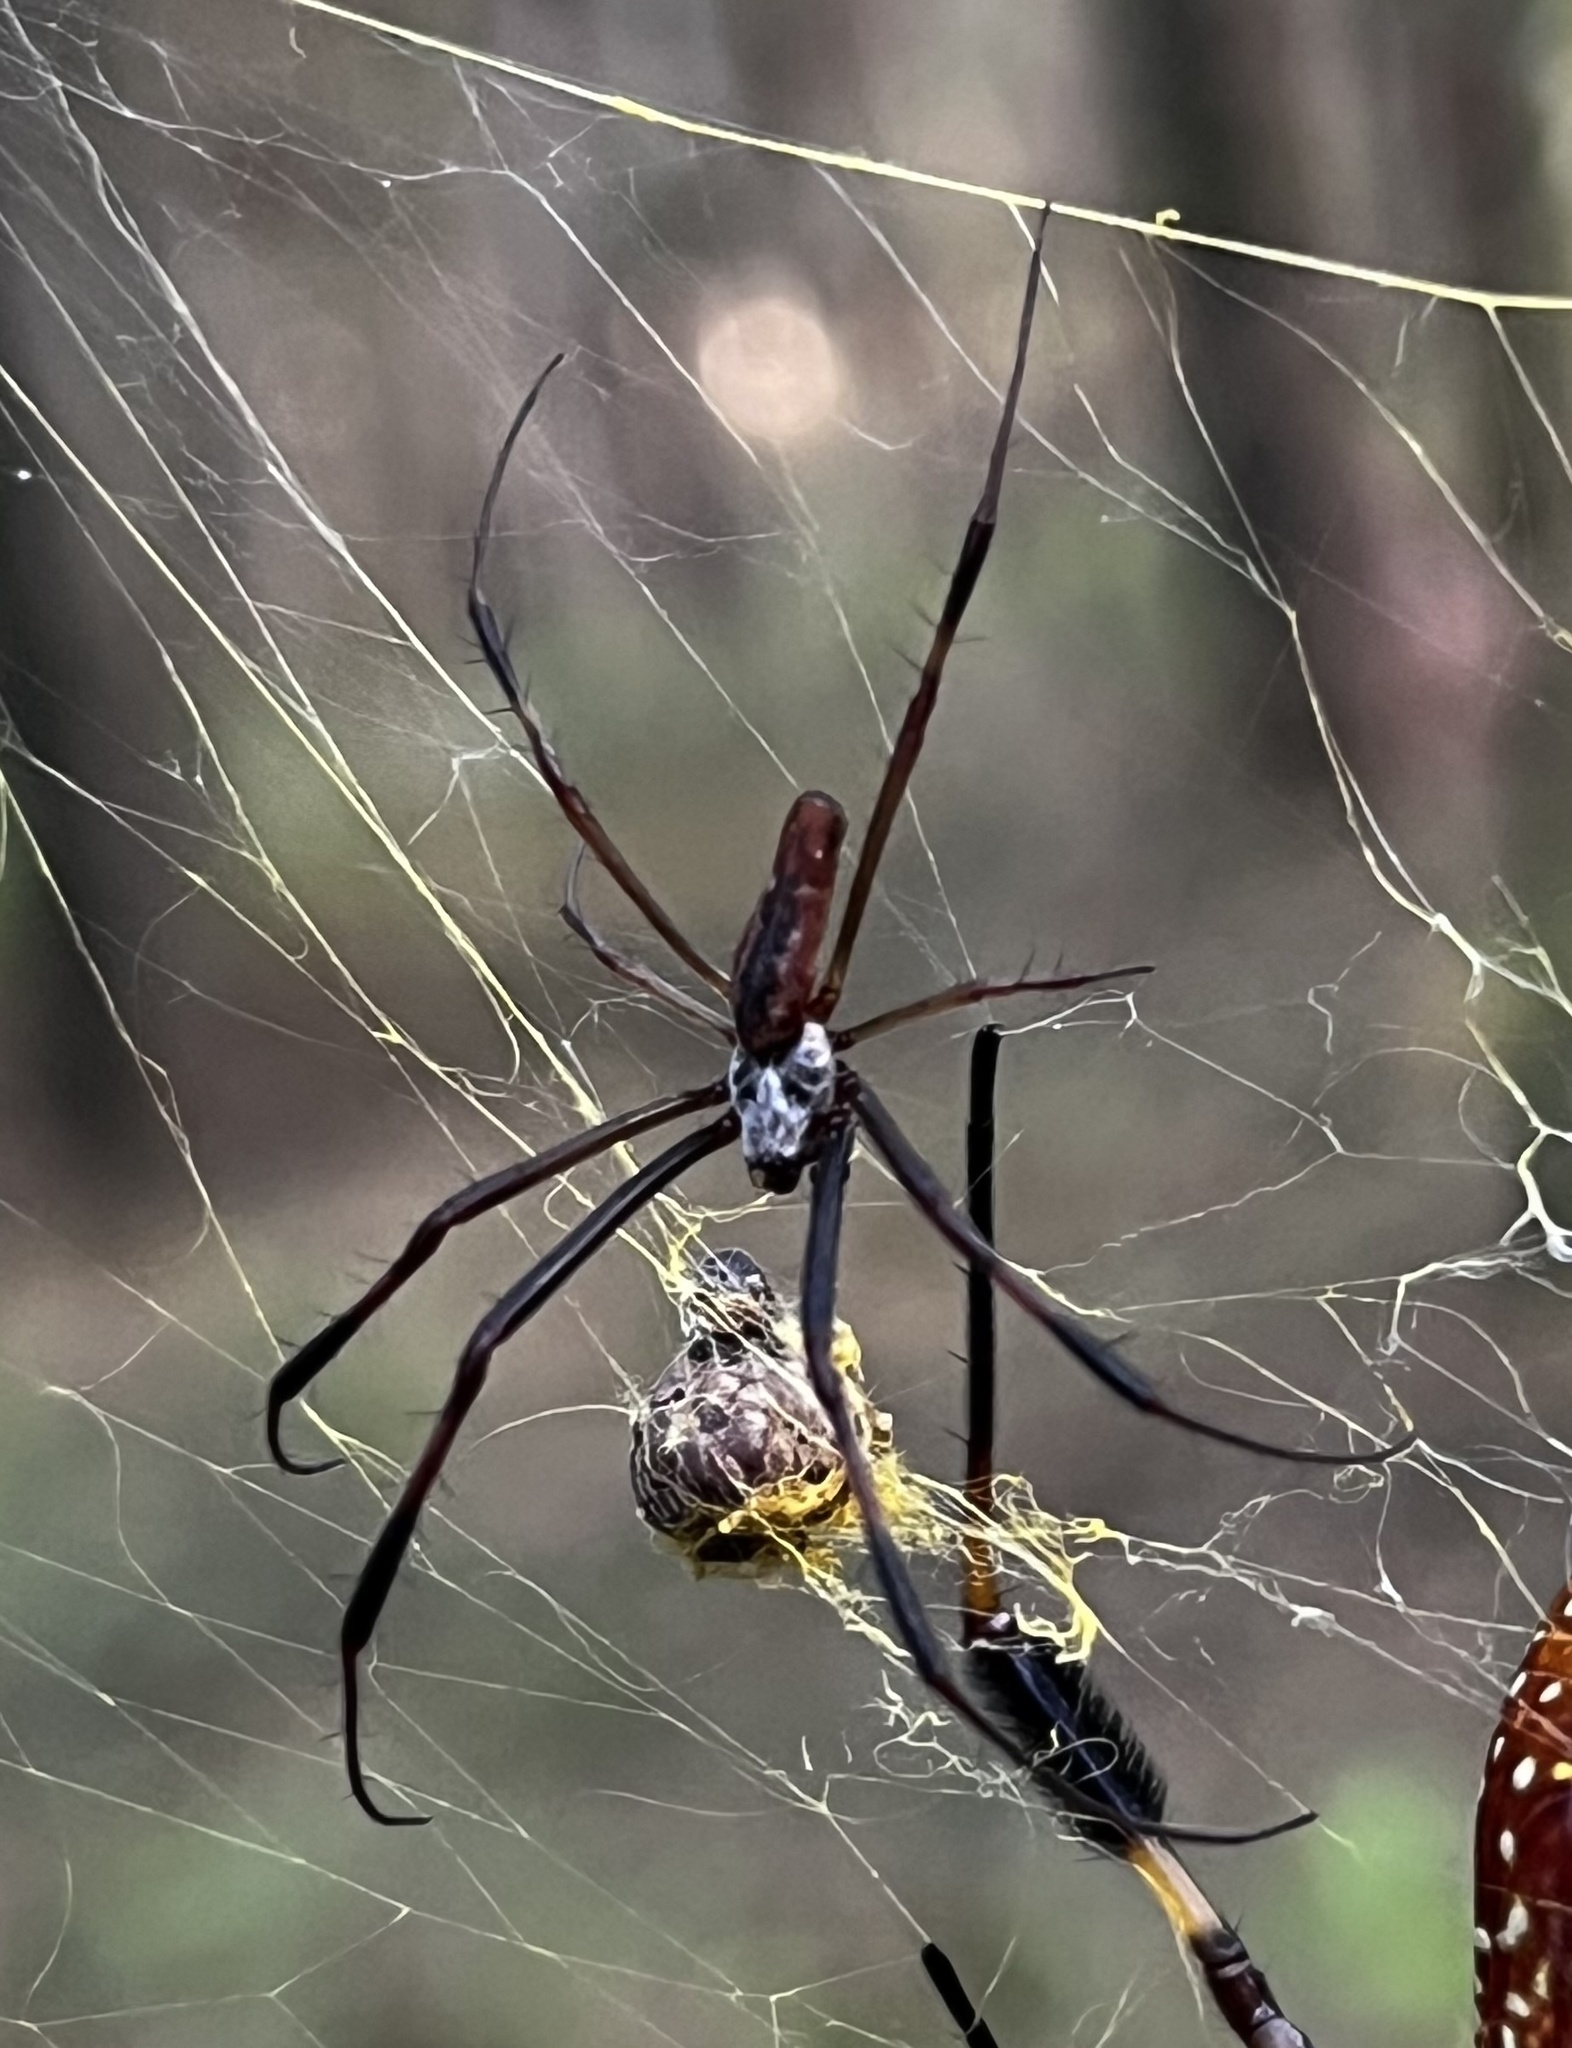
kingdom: Animalia
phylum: Arthropoda
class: Arachnida
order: Araneae
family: Araneidae
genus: Trichonephila
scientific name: Trichonephila clavipes
